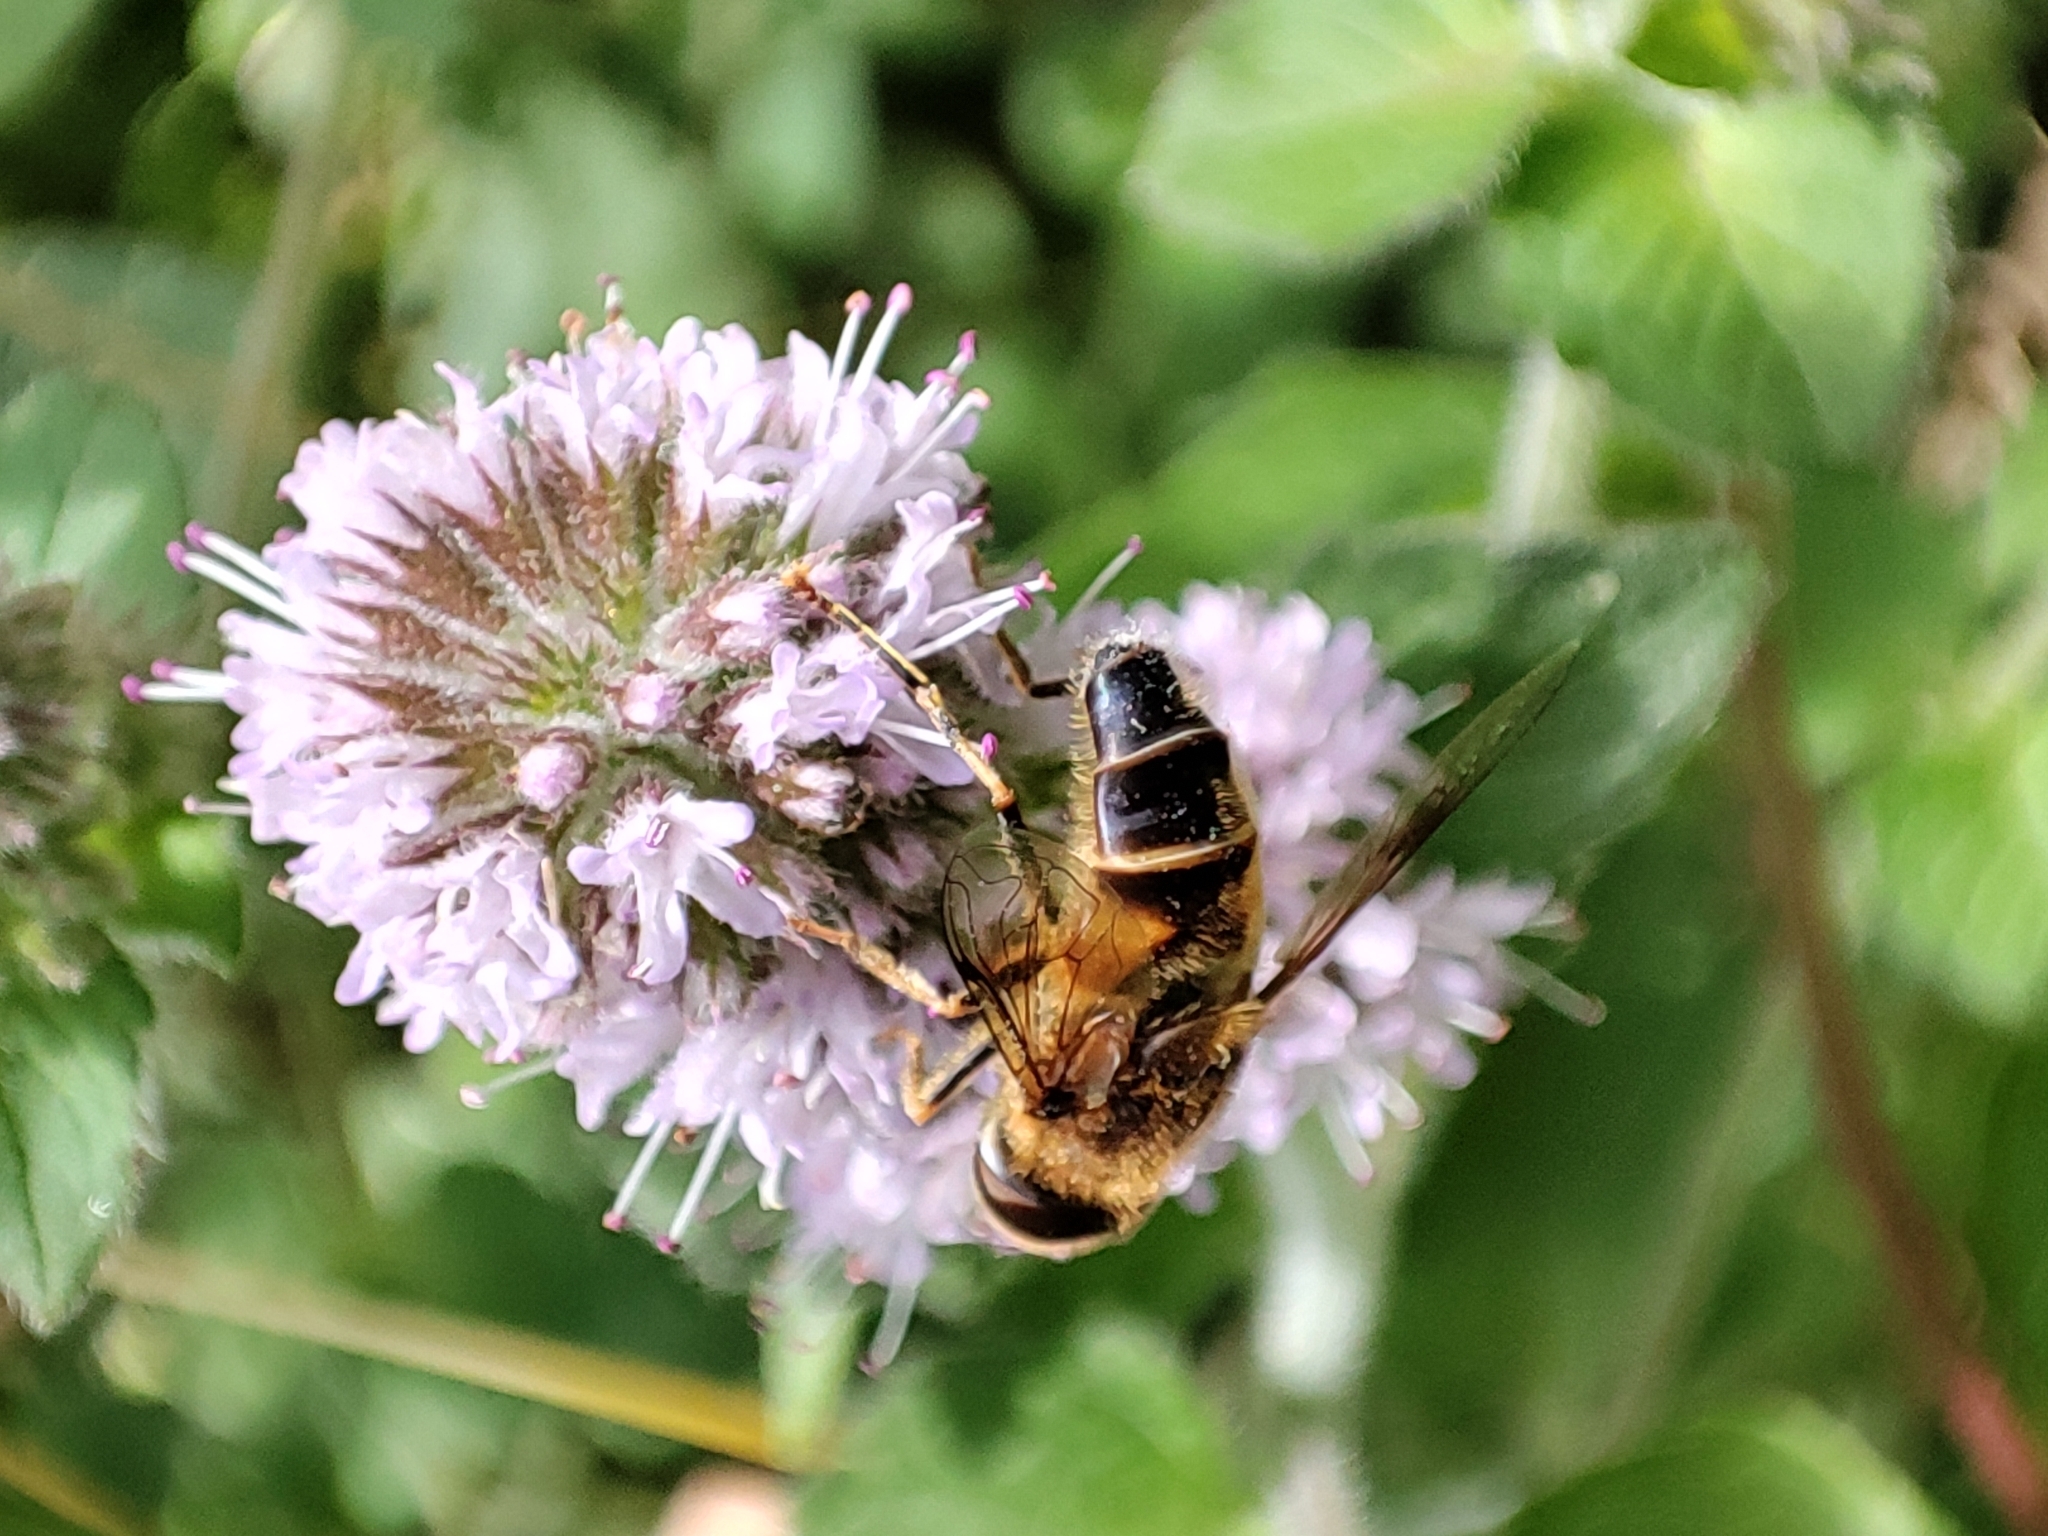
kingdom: Animalia
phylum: Arthropoda
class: Insecta
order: Diptera
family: Syrphidae
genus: Eristalis
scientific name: Eristalis pertinax
